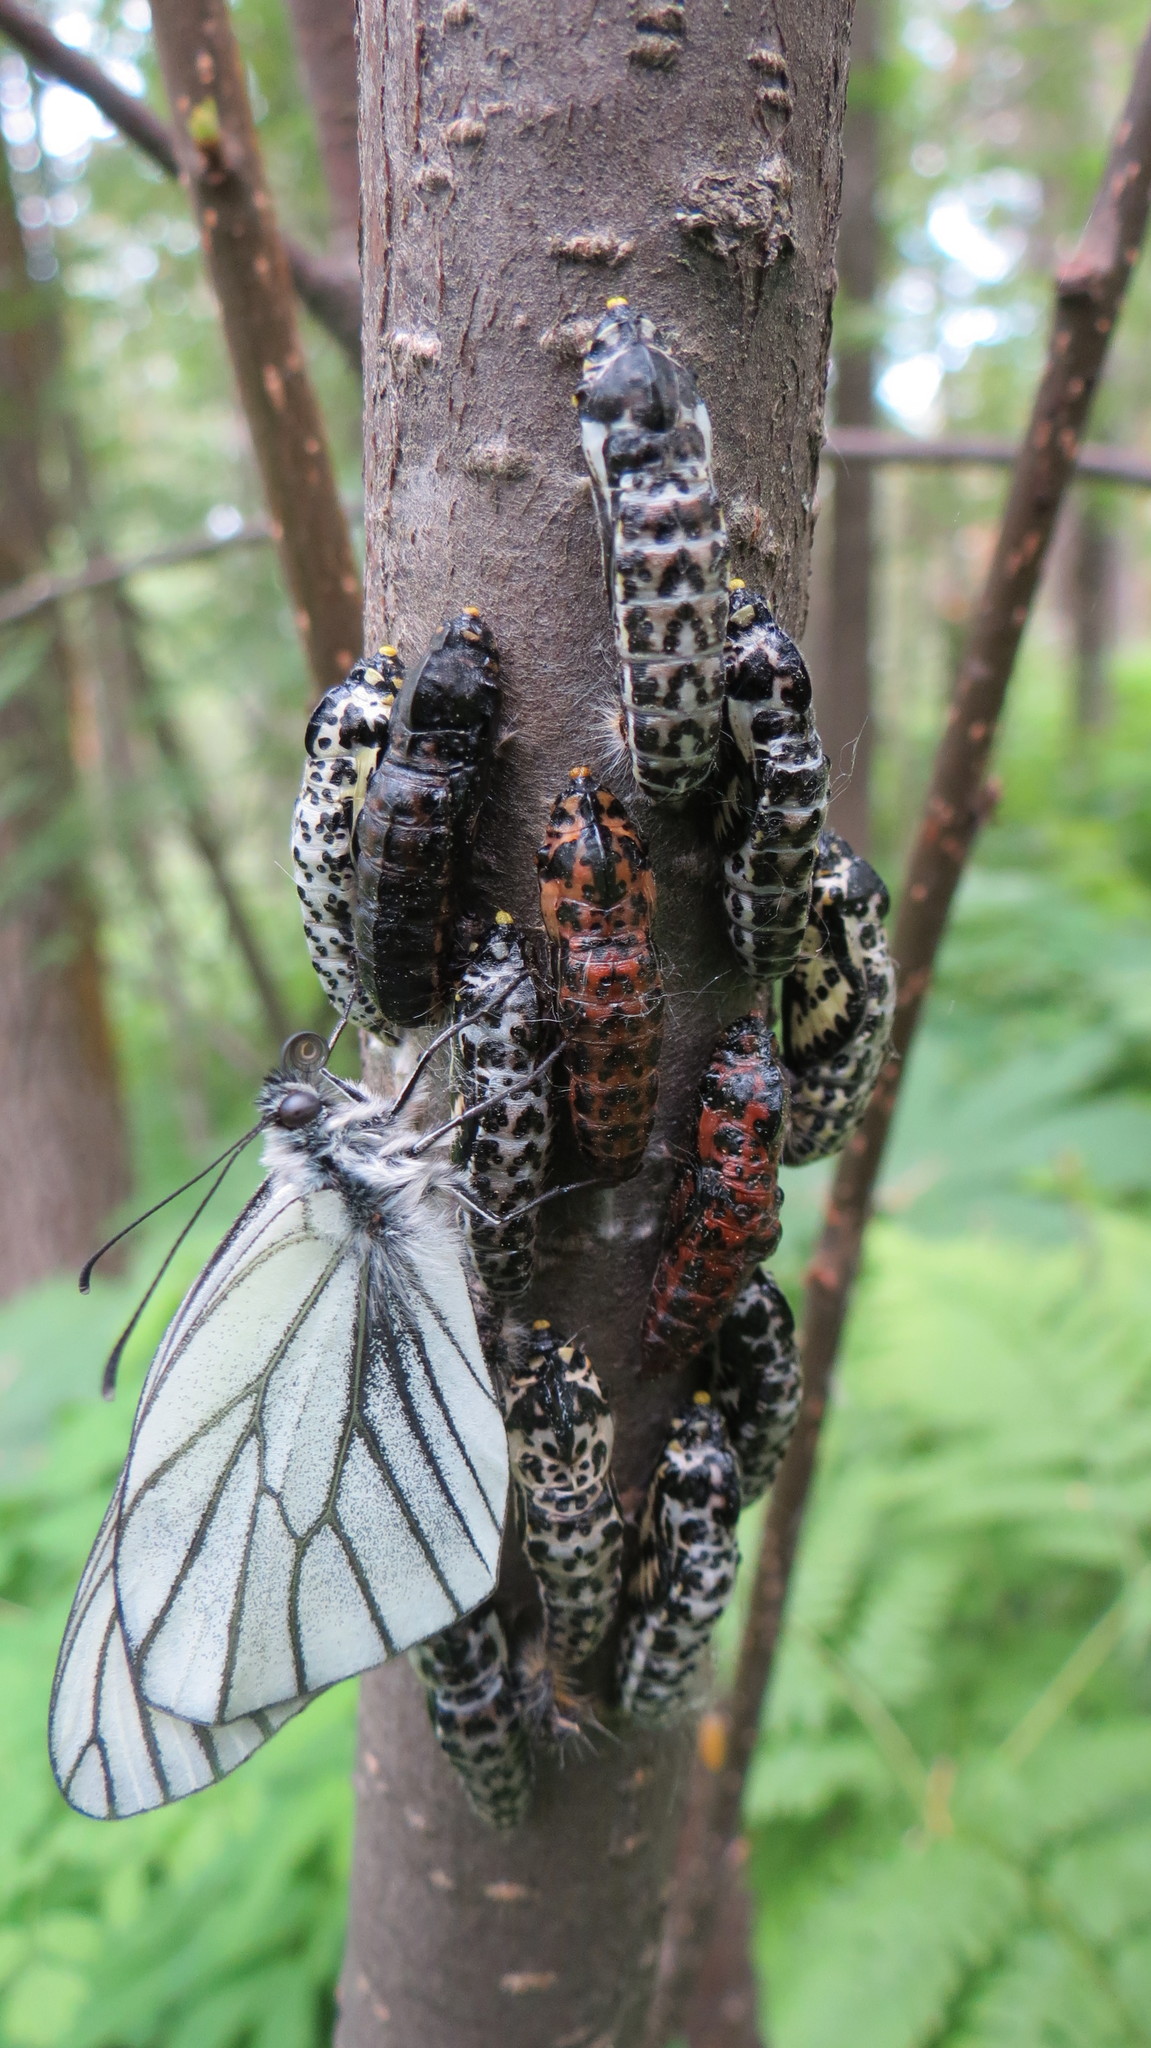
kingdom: Animalia
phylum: Arthropoda
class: Insecta
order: Lepidoptera
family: Pieridae
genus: Aporia
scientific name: Aporia crataegi
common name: Black-veined white
